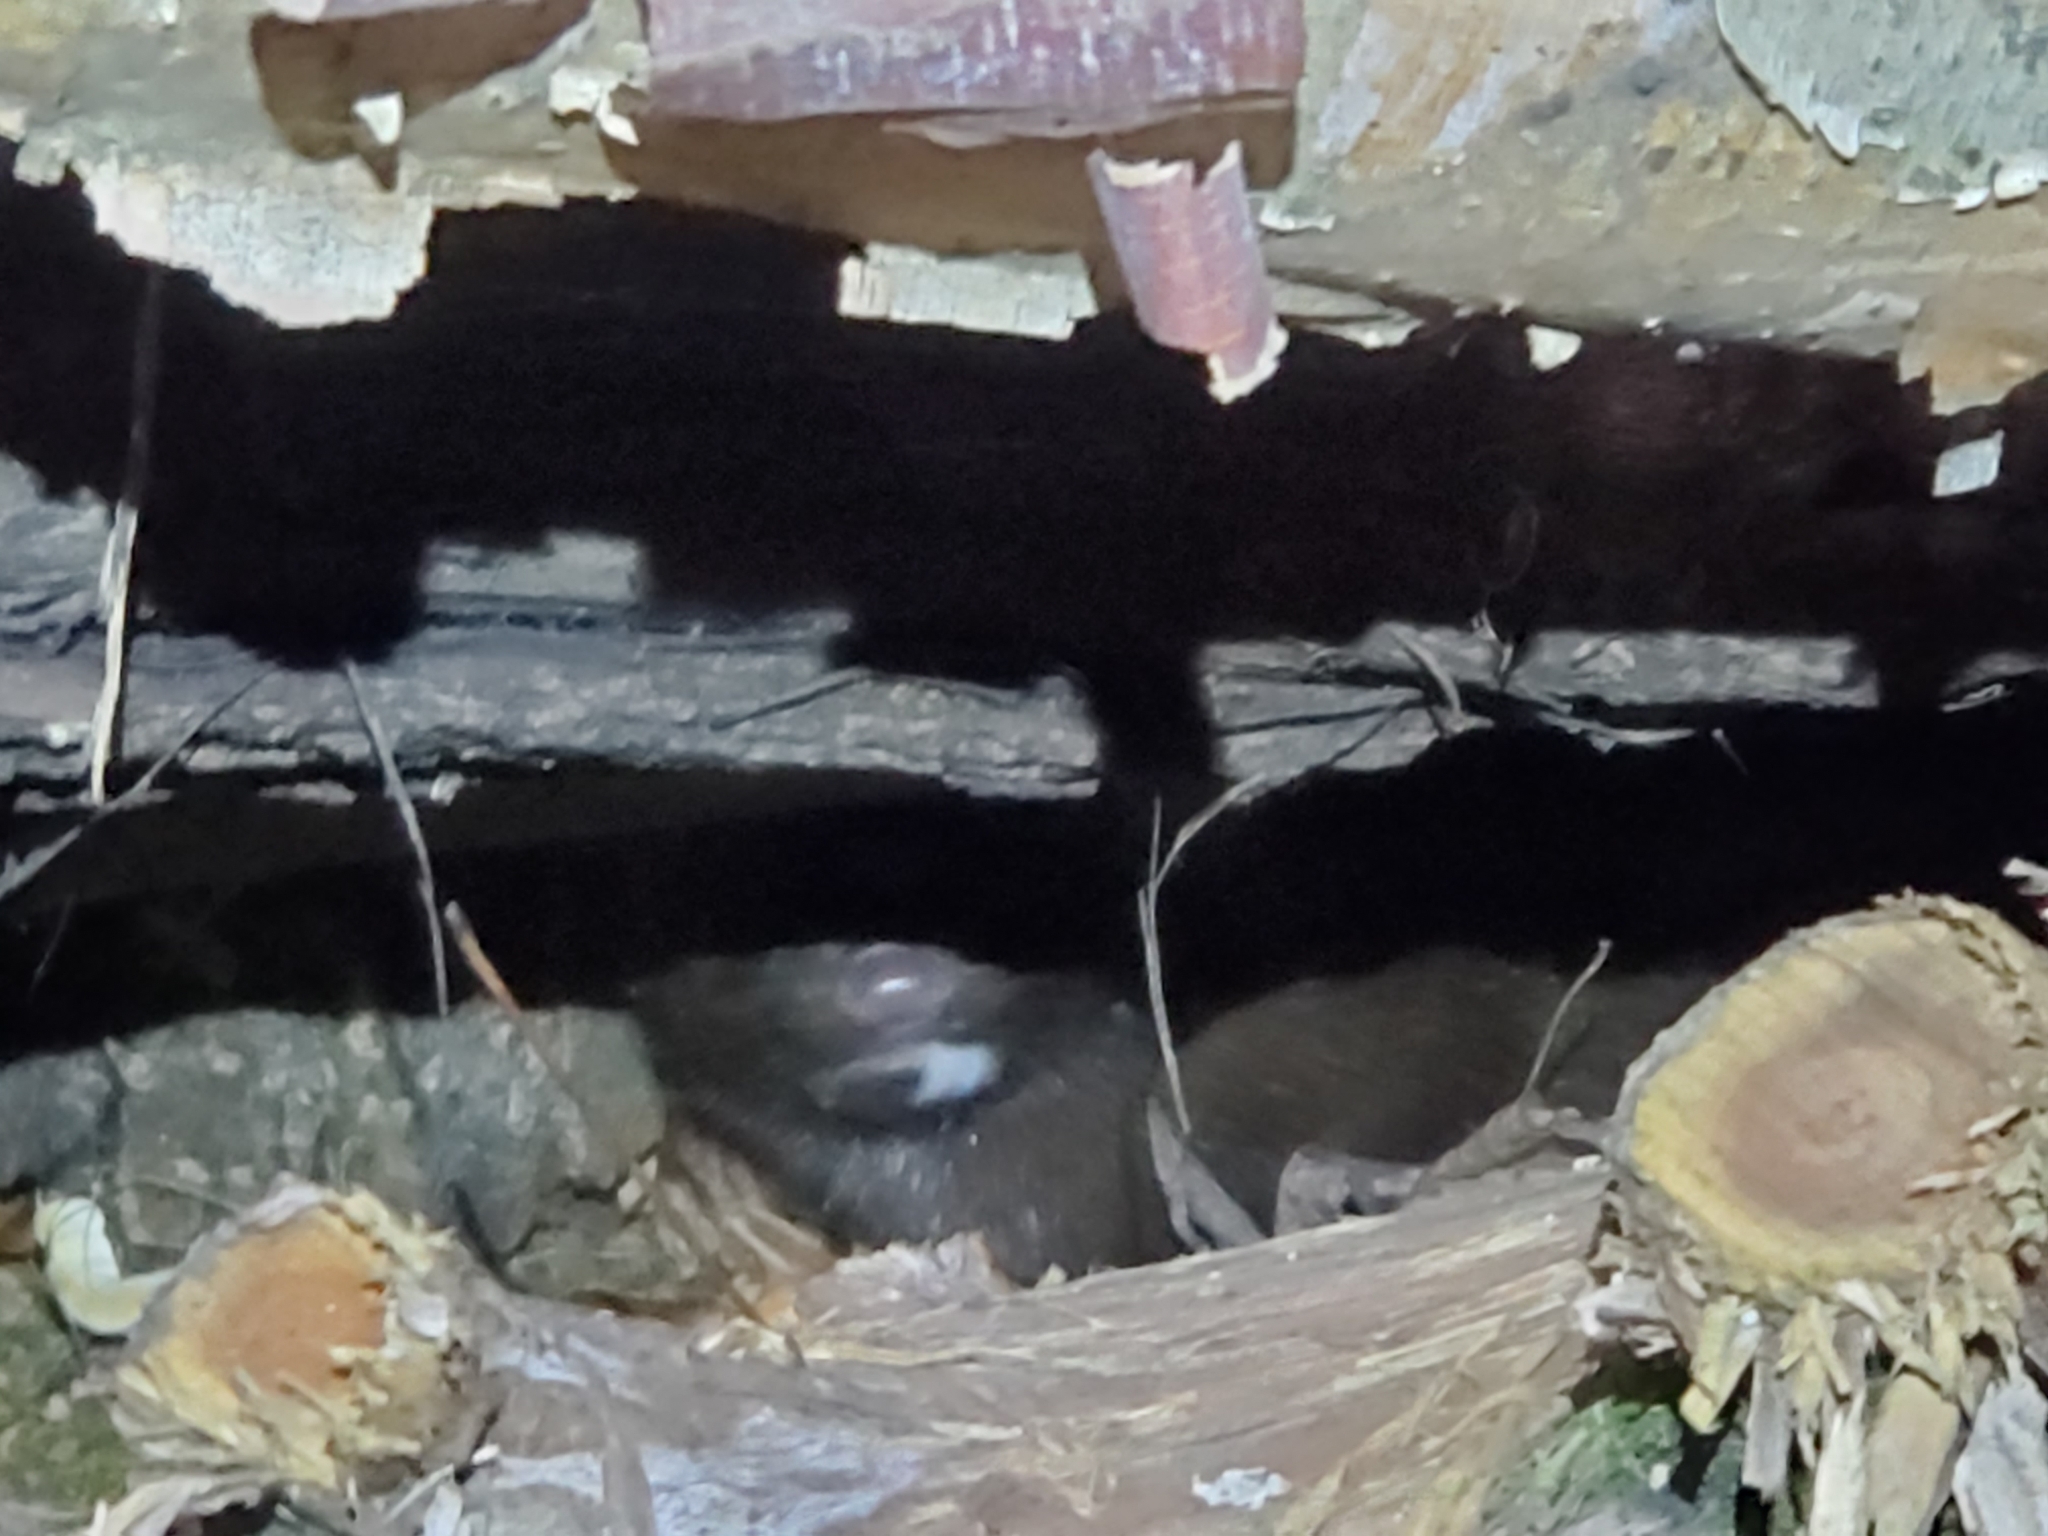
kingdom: Animalia
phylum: Chordata
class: Mammalia
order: Carnivora
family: Mustelidae
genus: Mustela
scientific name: Mustela
